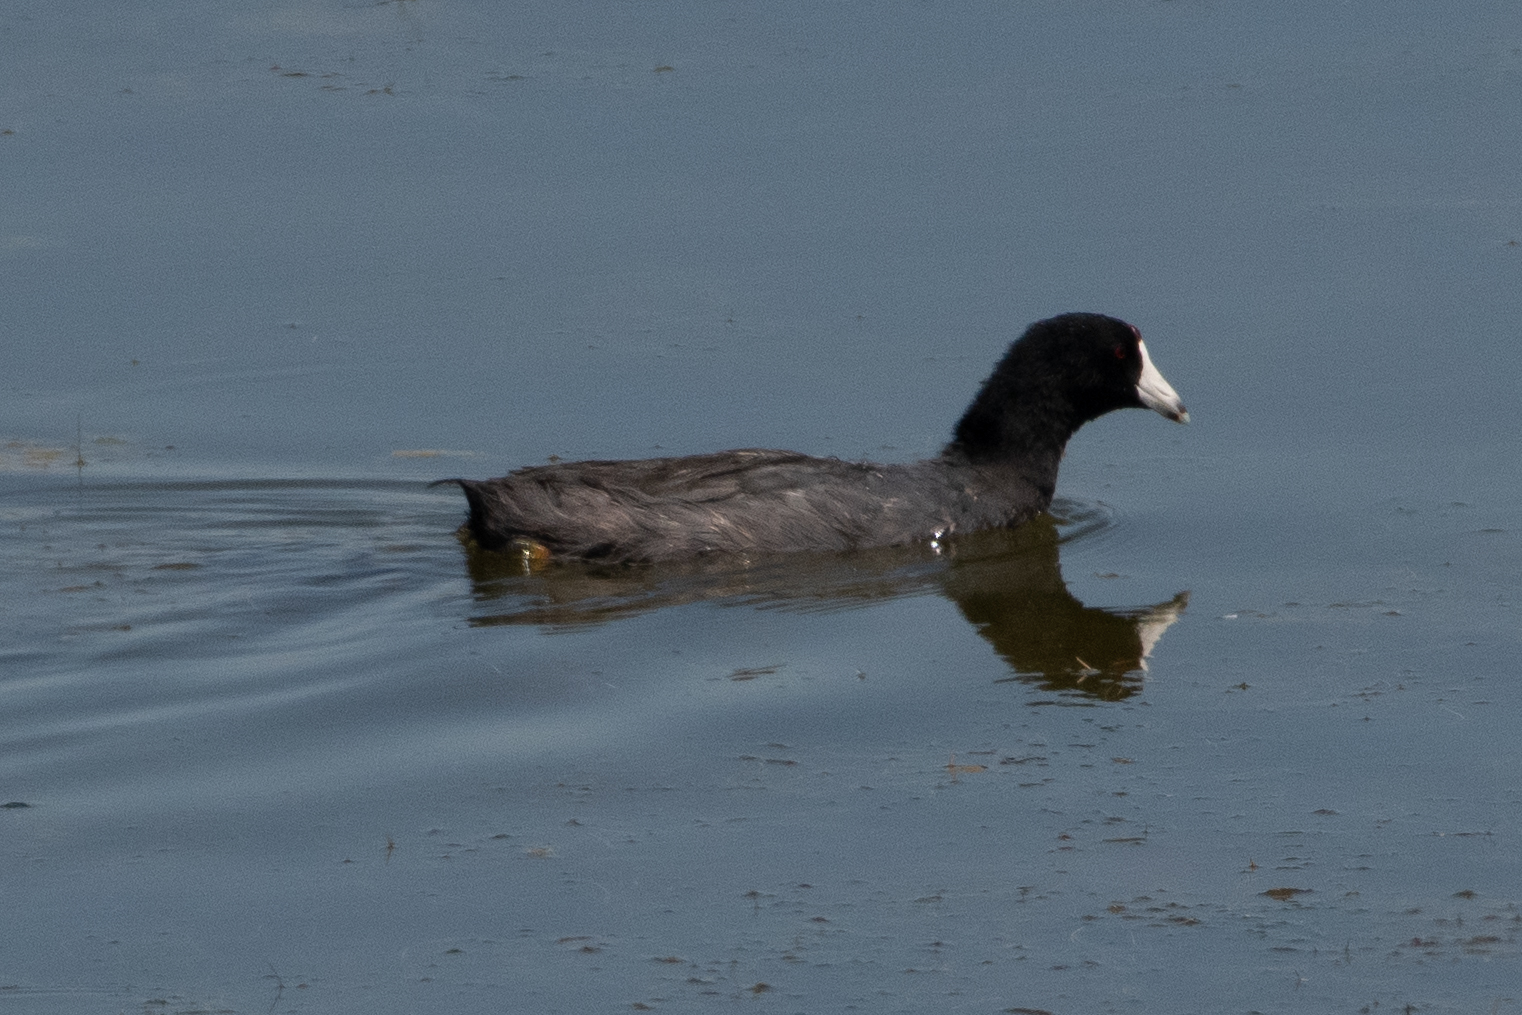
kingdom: Animalia
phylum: Chordata
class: Aves
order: Gruiformes
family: Rallidae
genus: Fulica
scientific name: Fulica americana
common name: American coot
